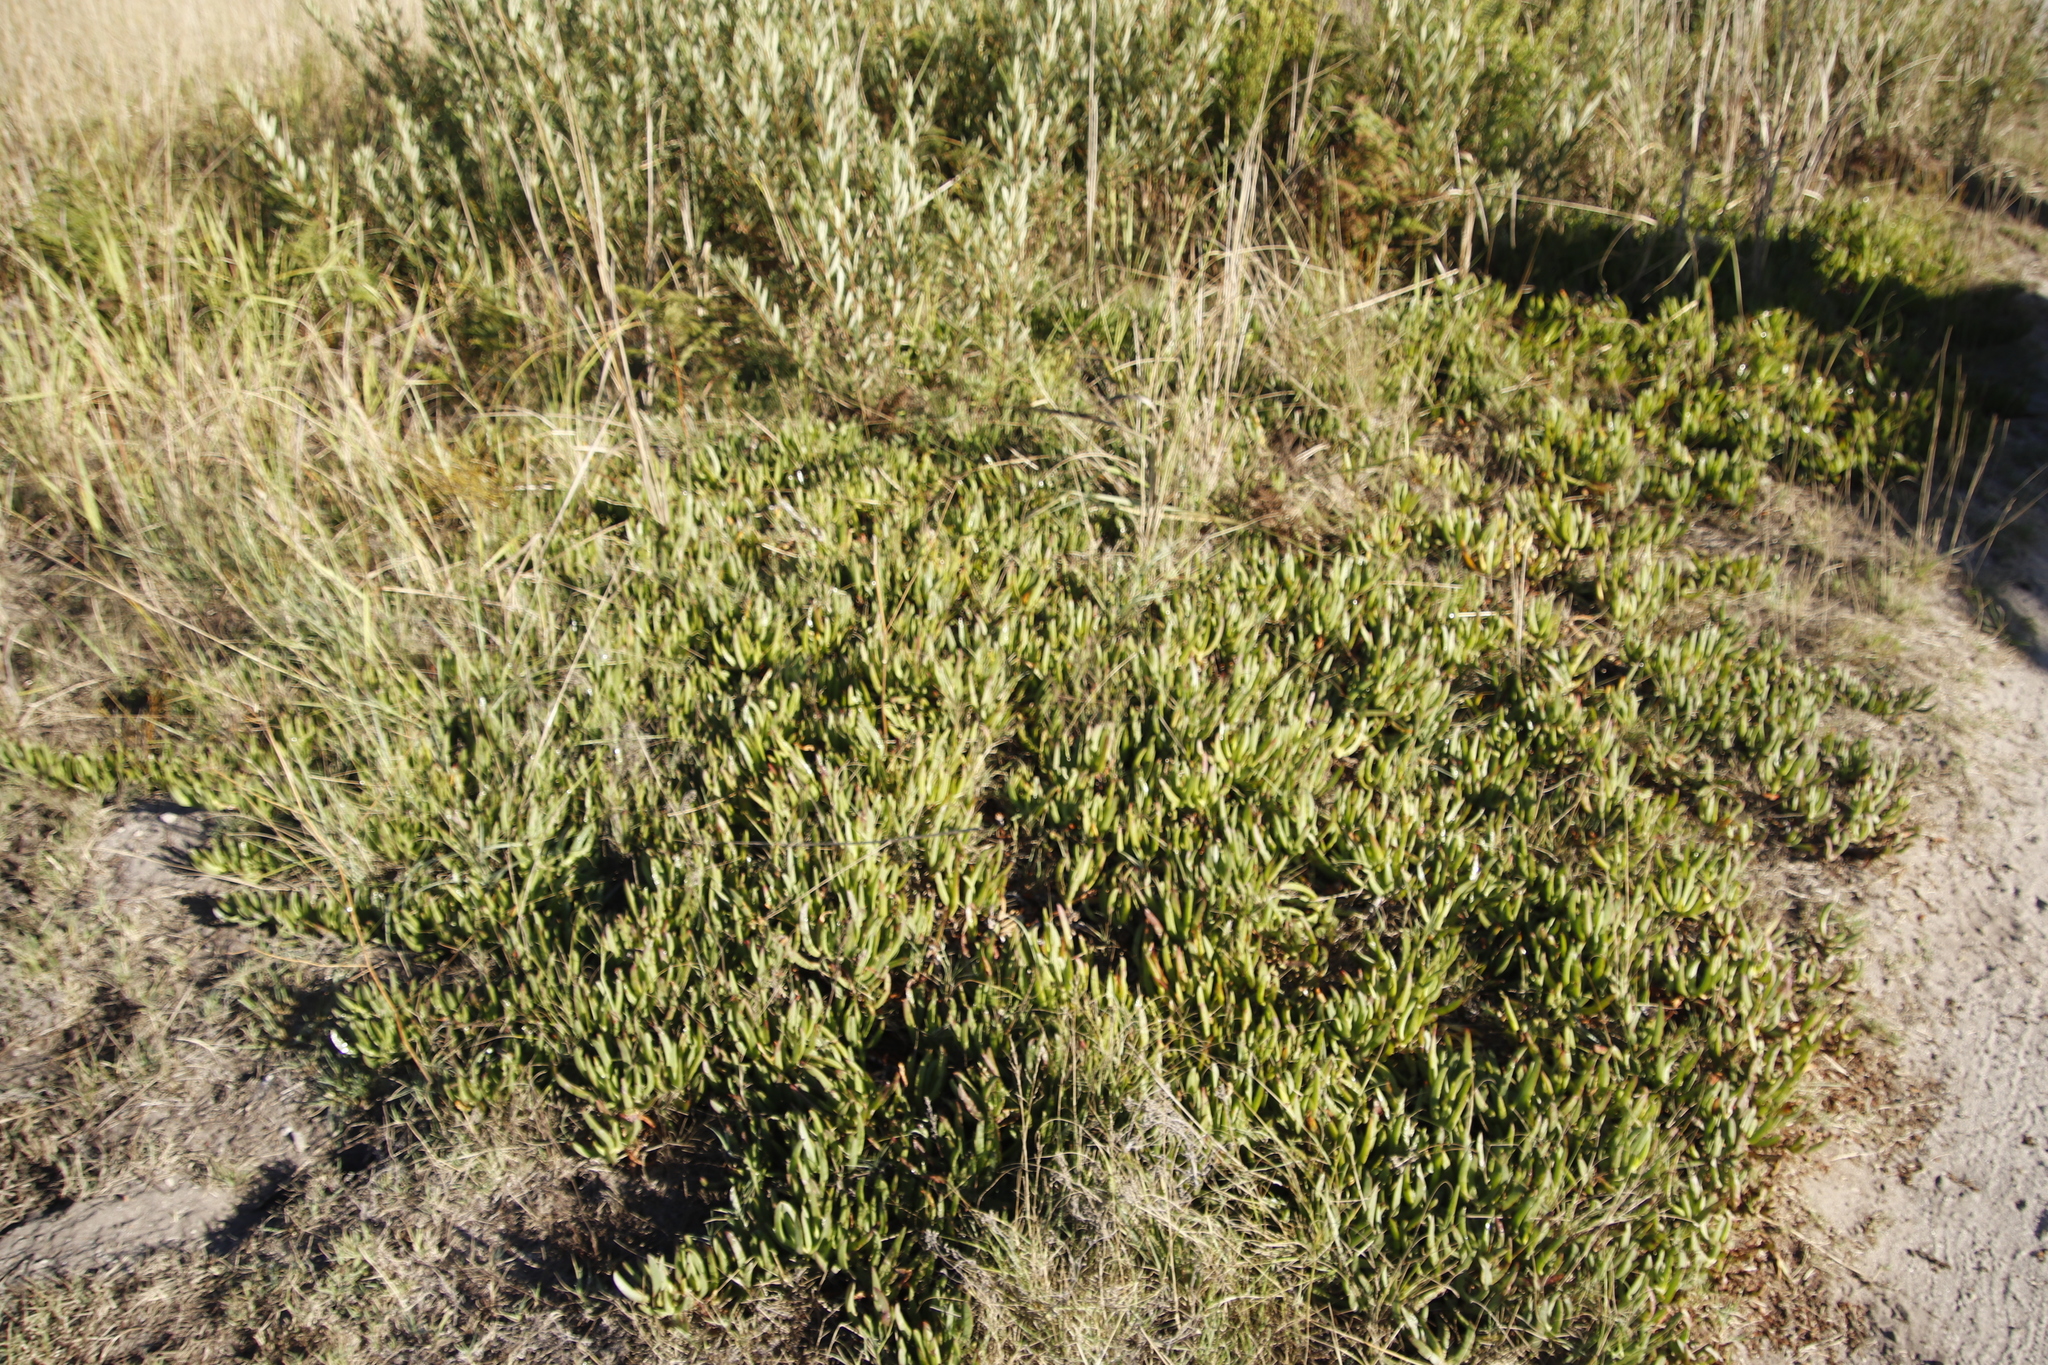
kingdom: Plantae
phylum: Tracheophyta
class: Magnoliopsida
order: Caryophyllales
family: Aizoaceae
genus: Carpobrotus
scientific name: Carpobrotus edulis
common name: Hottentot-fig
